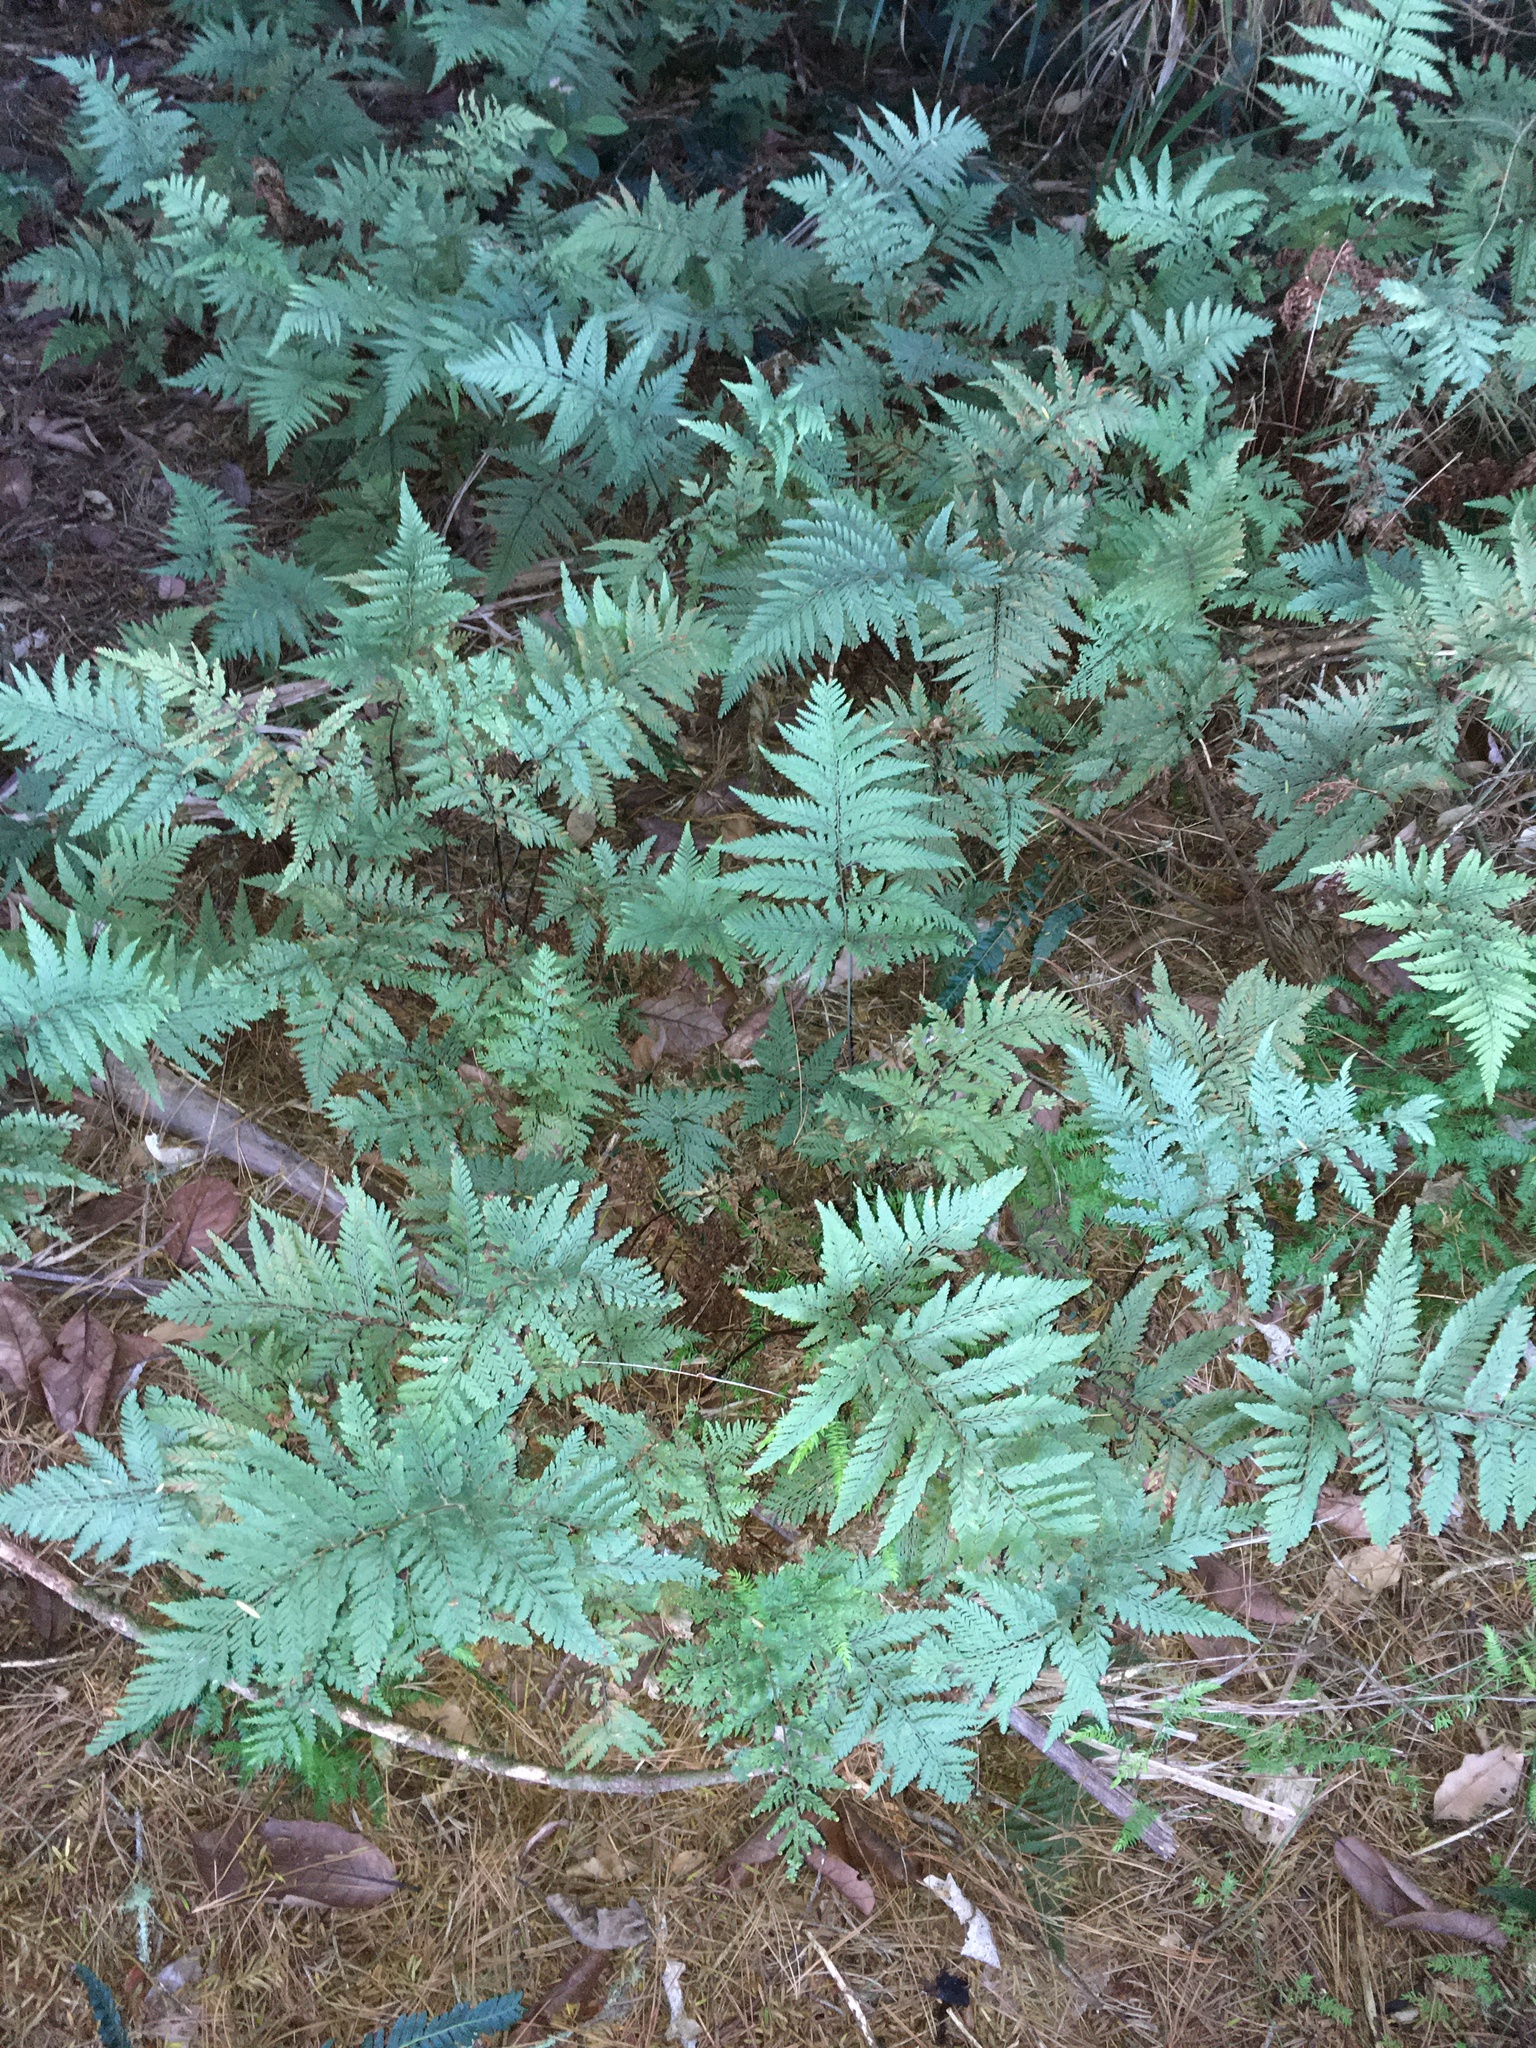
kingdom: Plantae
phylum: Tracheophyta
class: Polypodiopsida
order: Polypodiales
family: Dryopteridaceae
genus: Parapolystichum
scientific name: Parapolystichum microsorum
